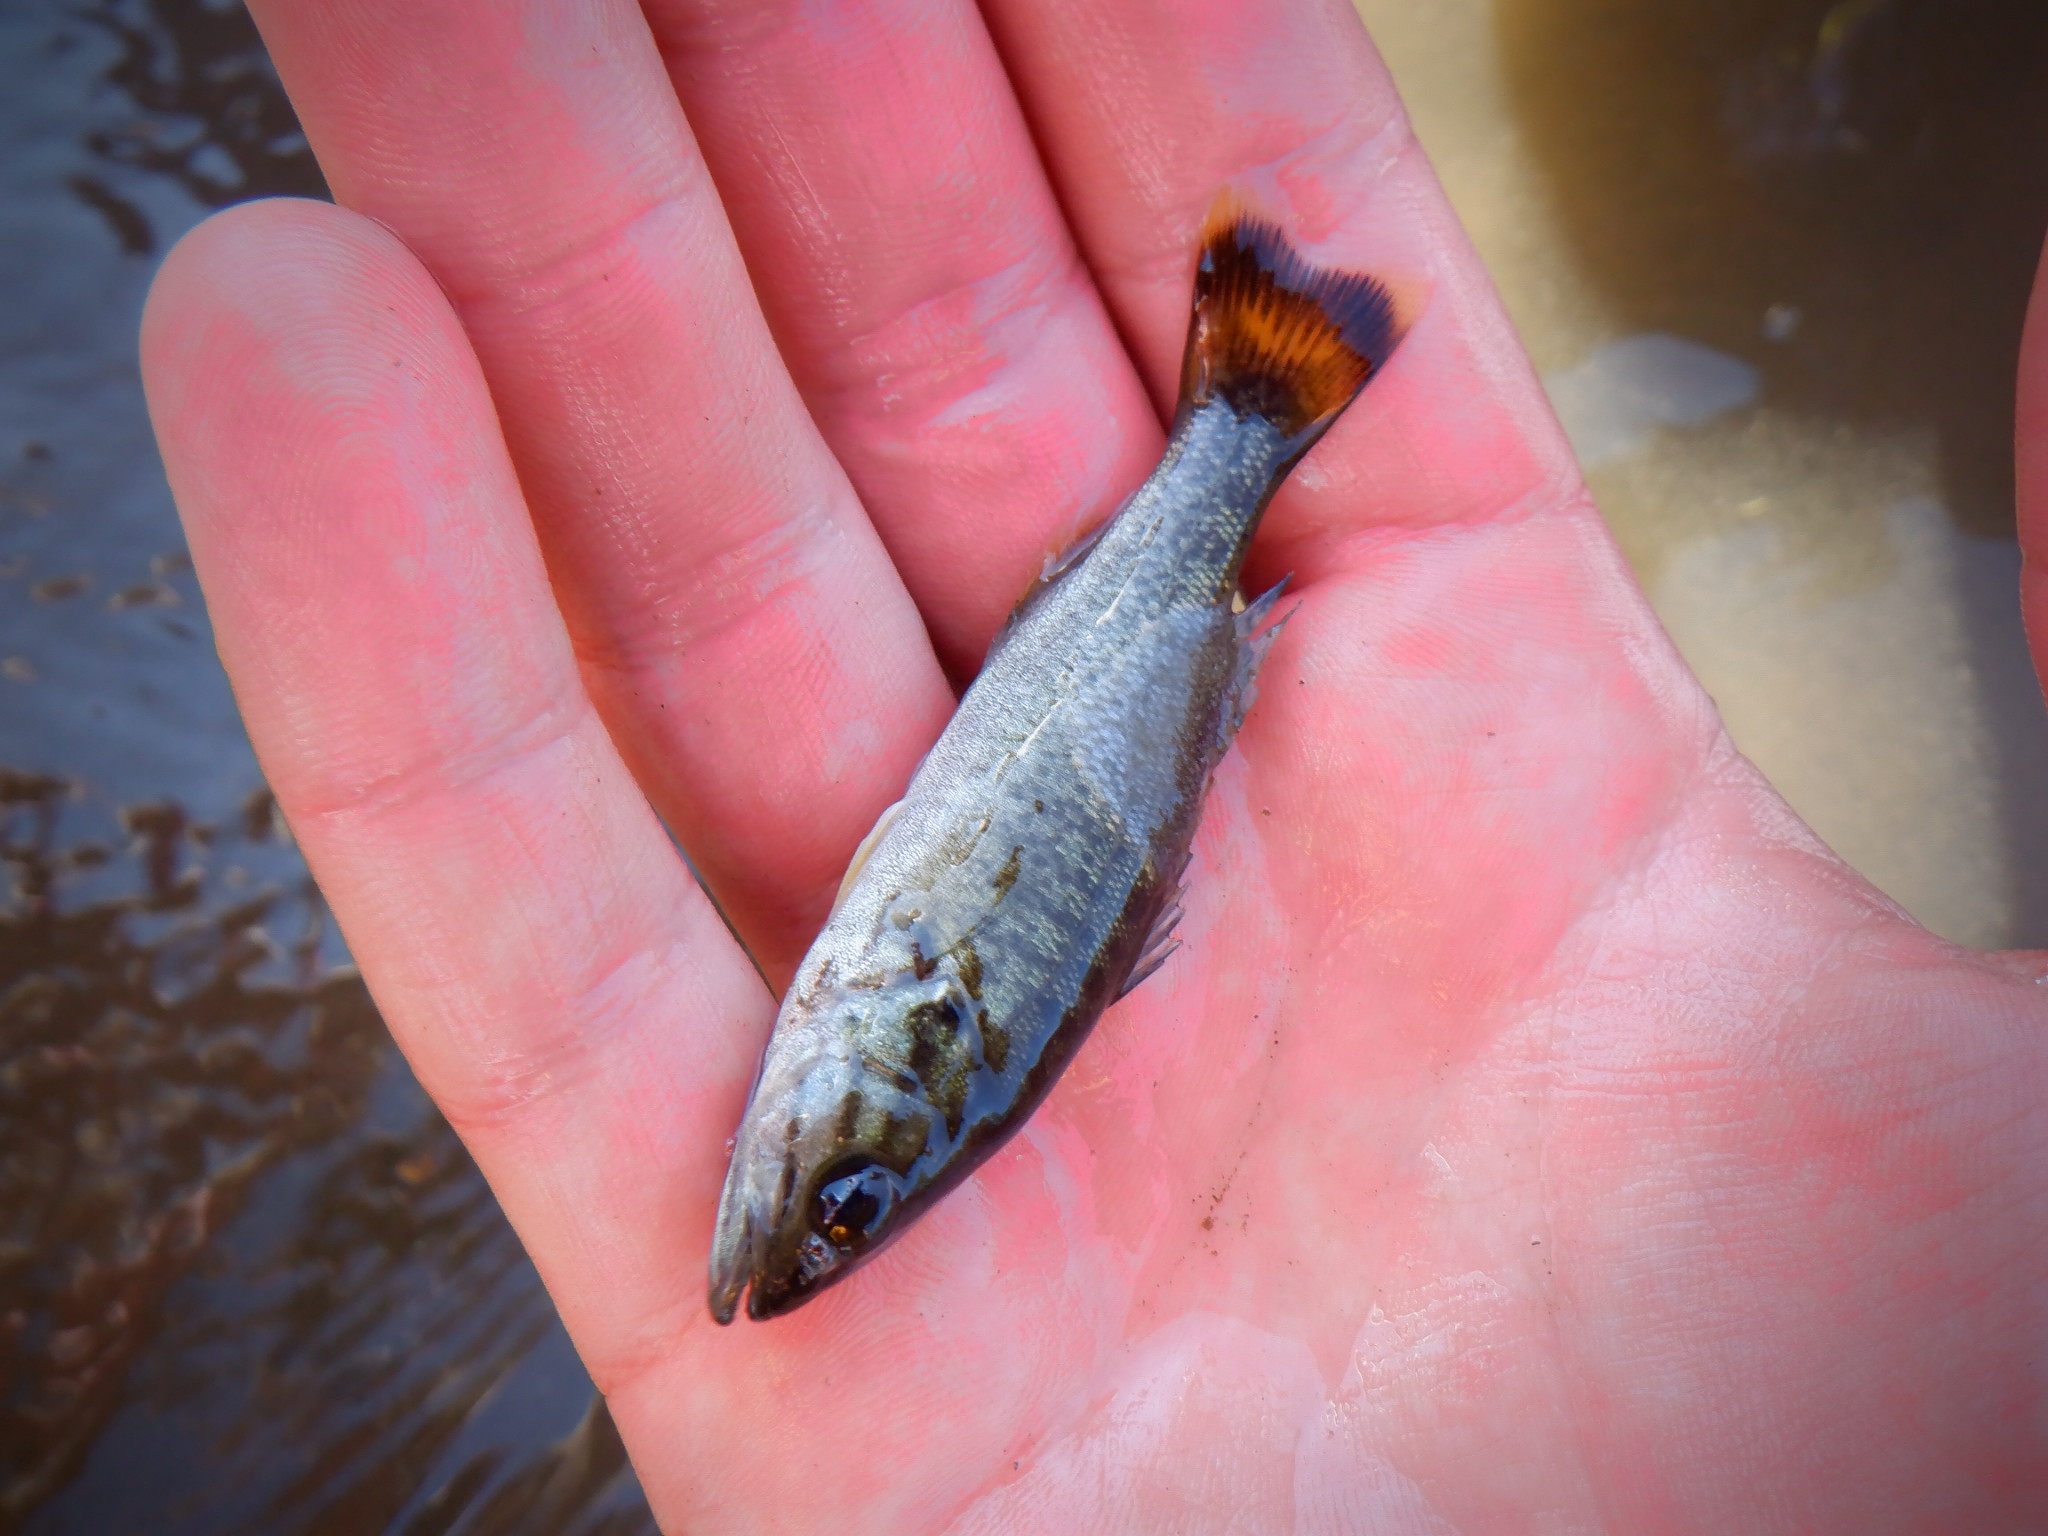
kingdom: Animalia
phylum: Chordata
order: Perciformes
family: Centrarchidae
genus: Micropterus
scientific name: Micropterus dolomieu
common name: Smallmouth bass
